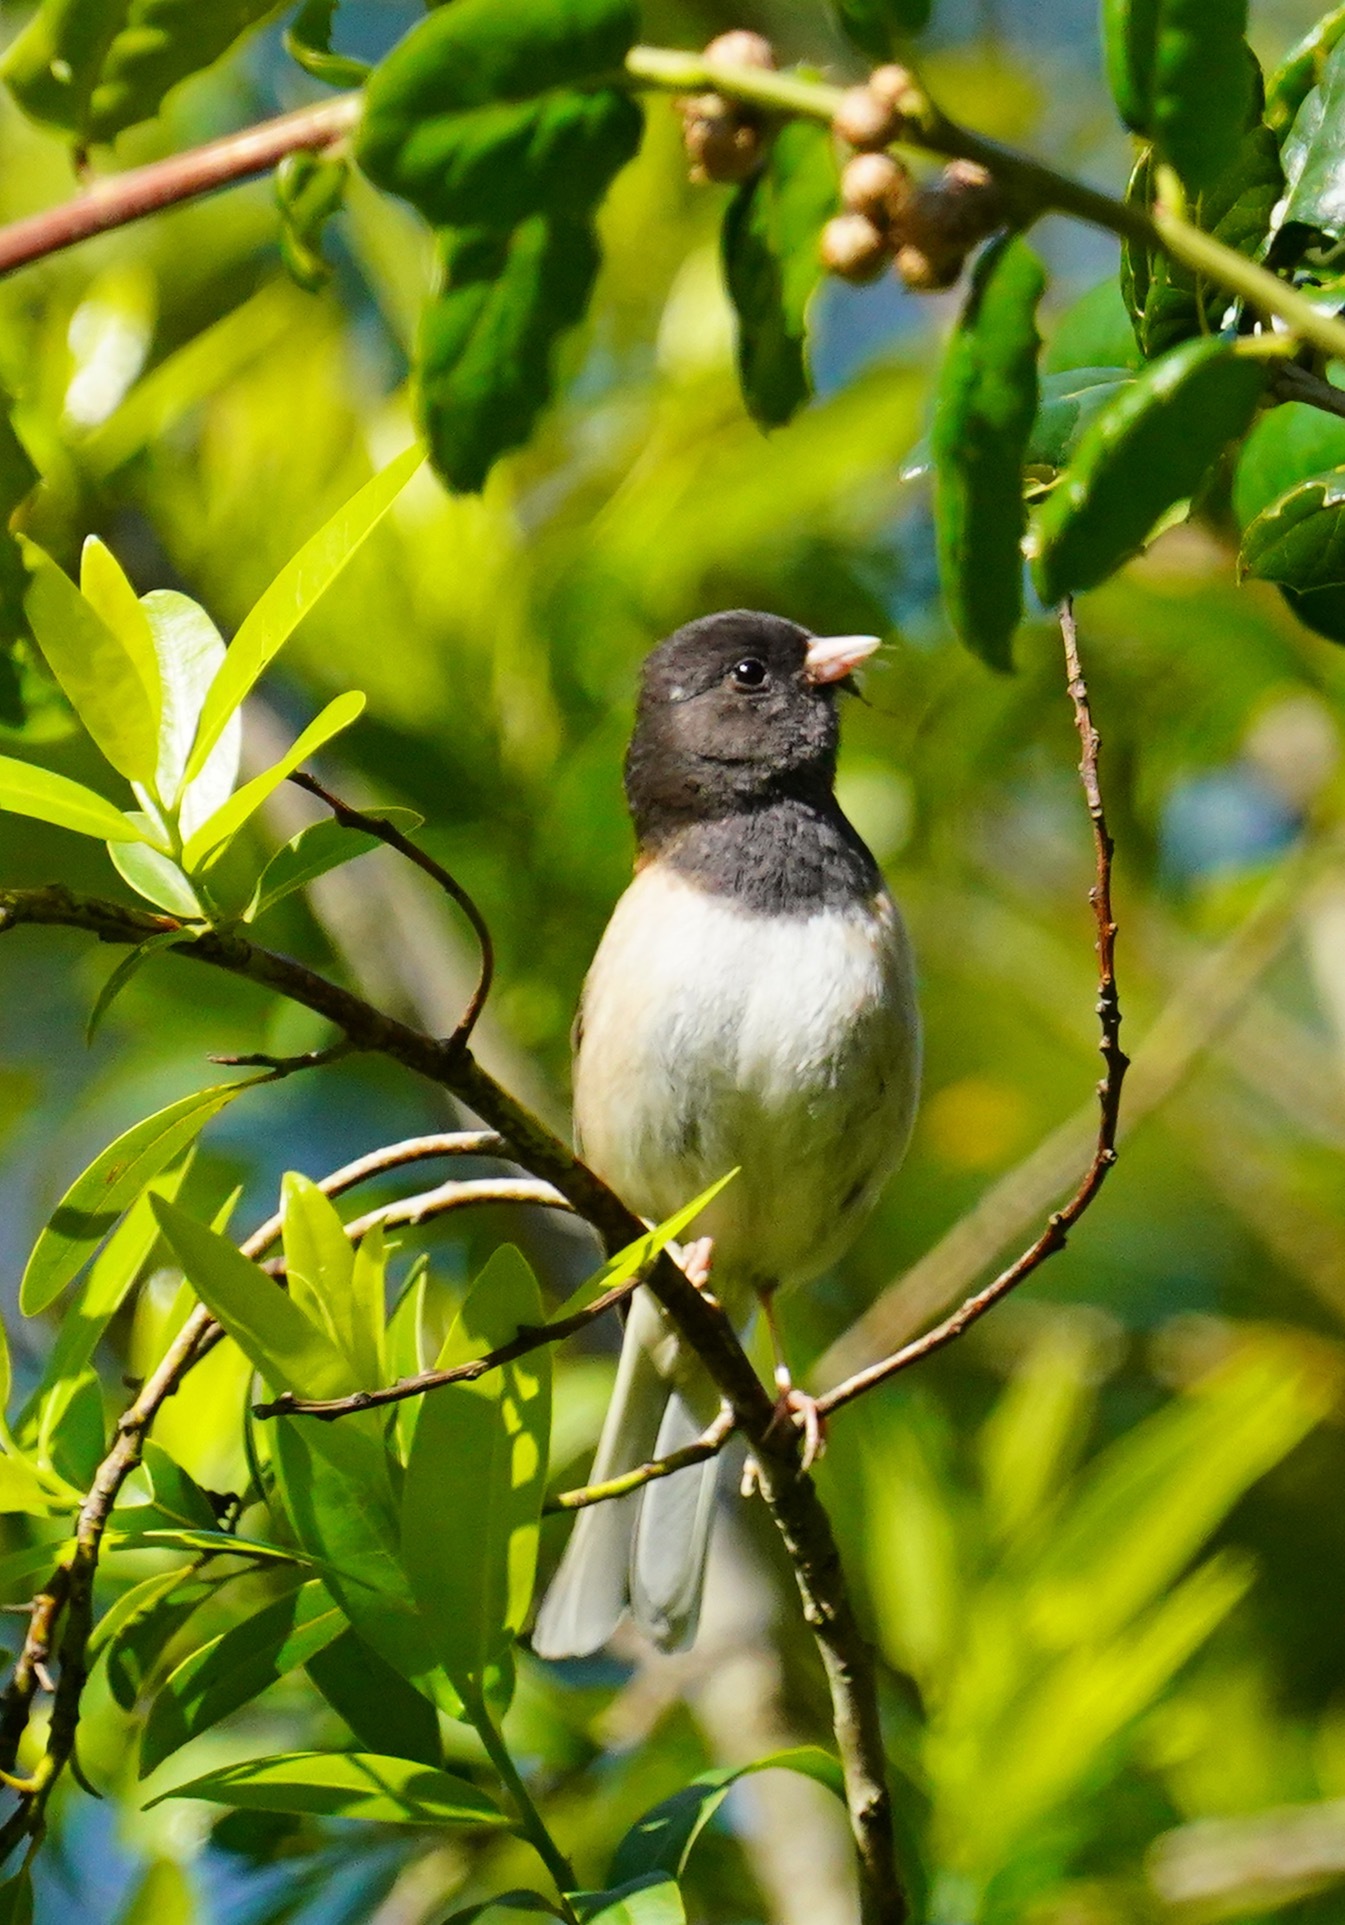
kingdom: Animalia
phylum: Chordata
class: Aves
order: Passeriformes
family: Passerellidae
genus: Junco
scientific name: Junco hyemalis
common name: Dark-eyed junco
